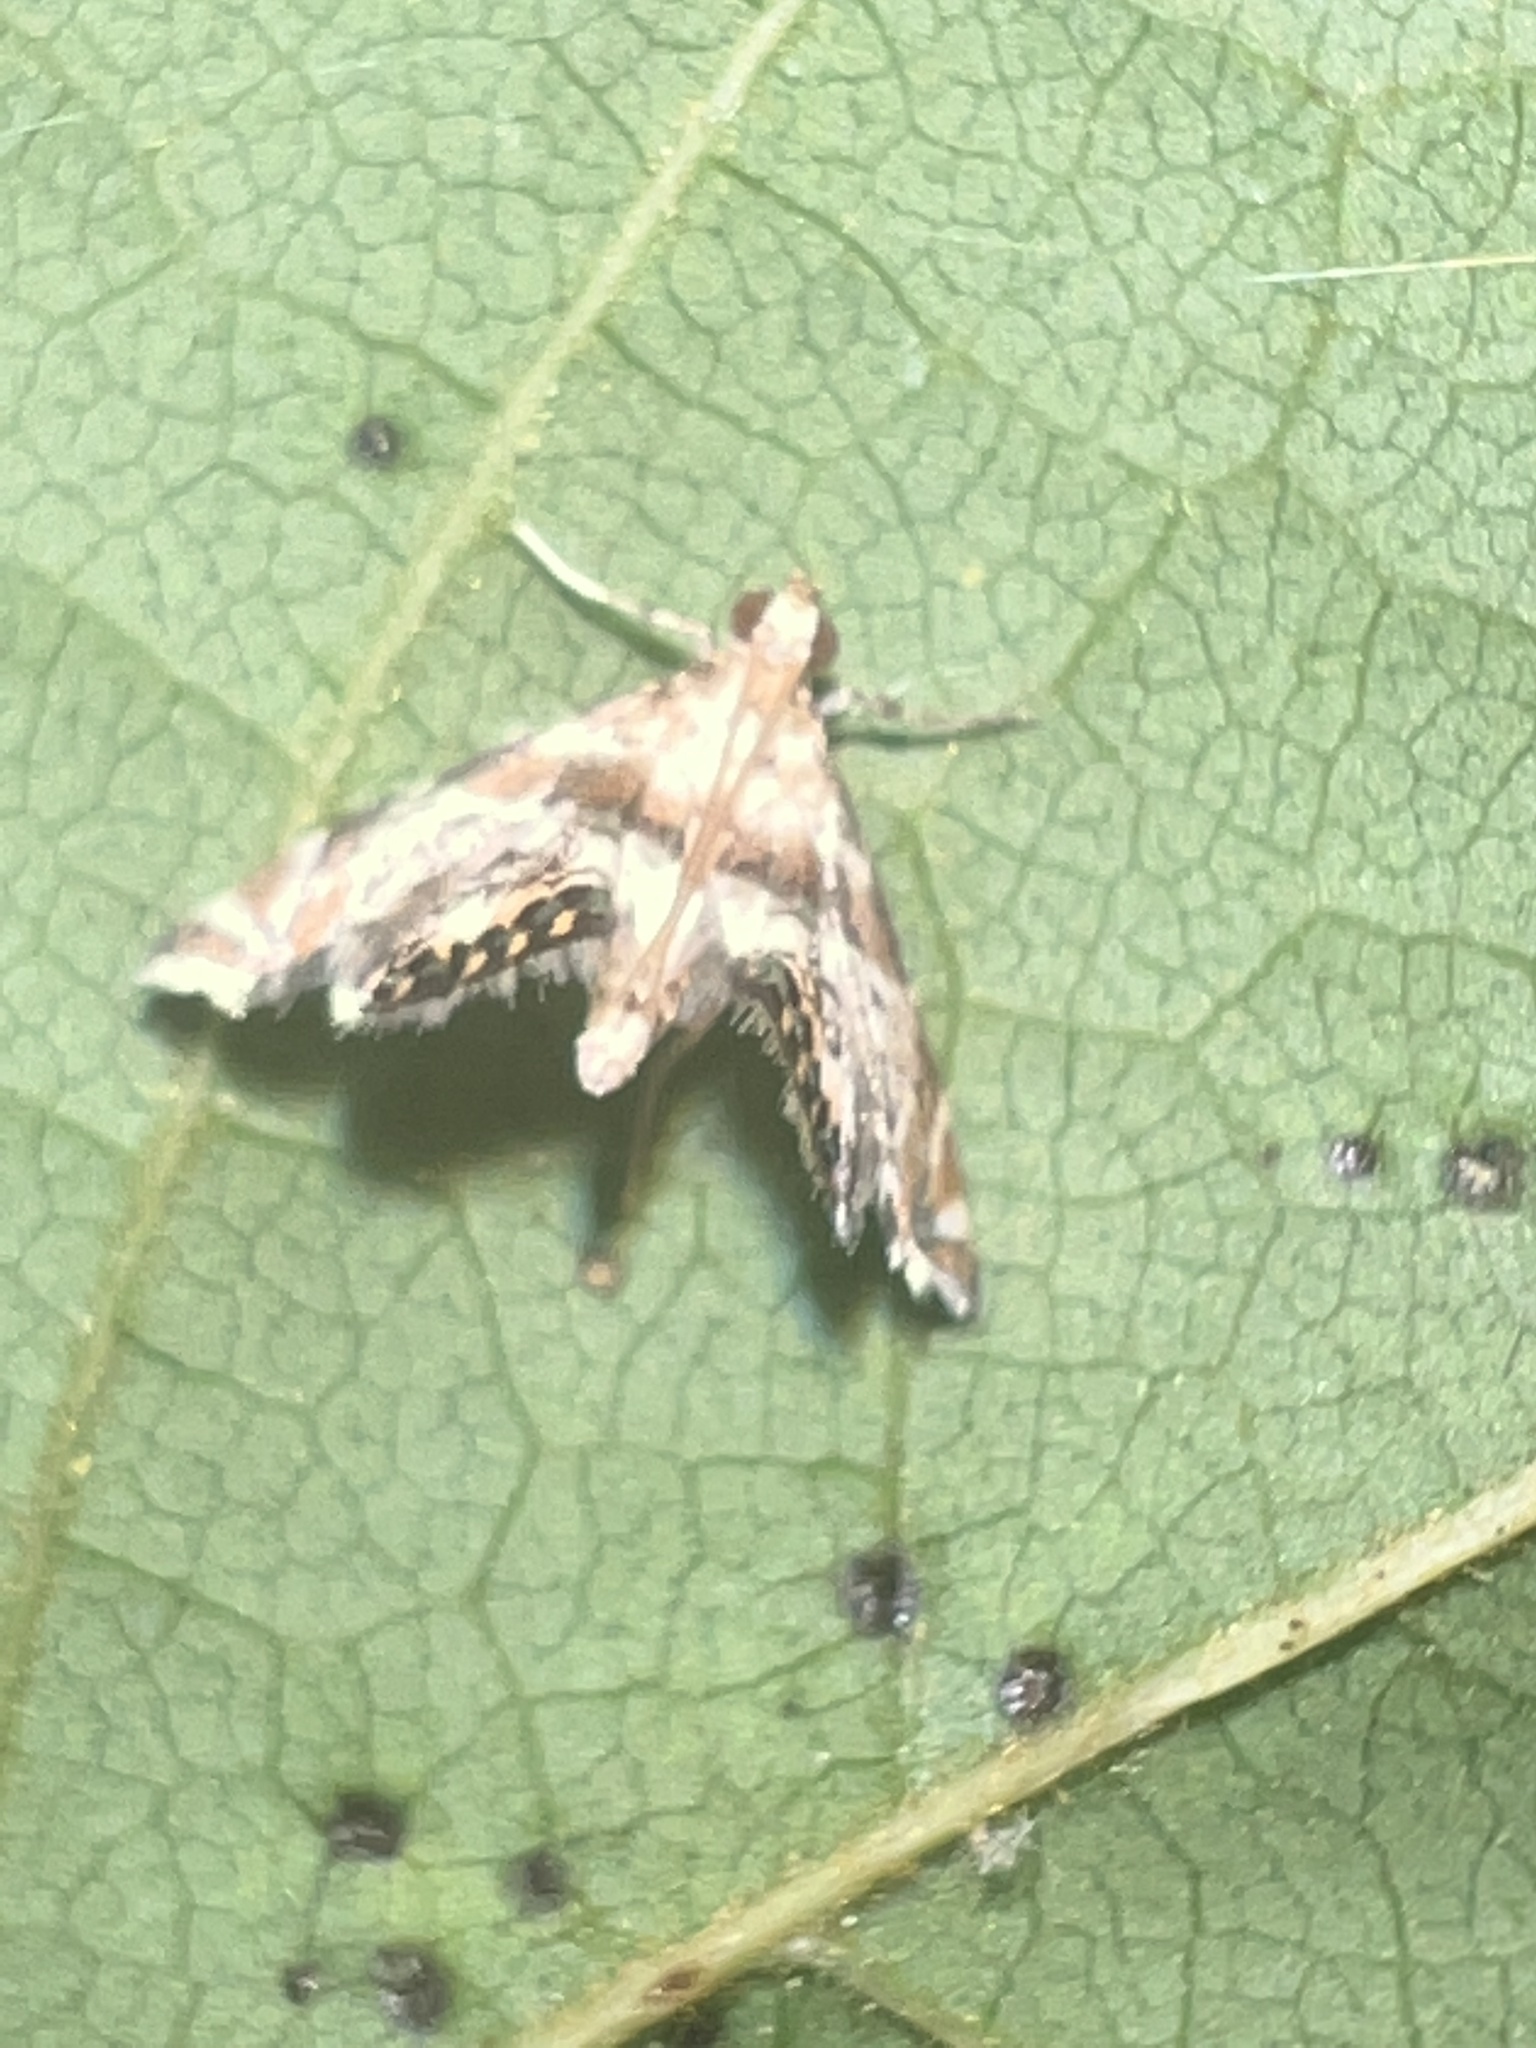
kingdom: Animalia
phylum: Arthropoda
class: Insecta
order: Lepidoptera
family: Crambidae
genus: Petrophila
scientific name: Petrophila fulicalis
